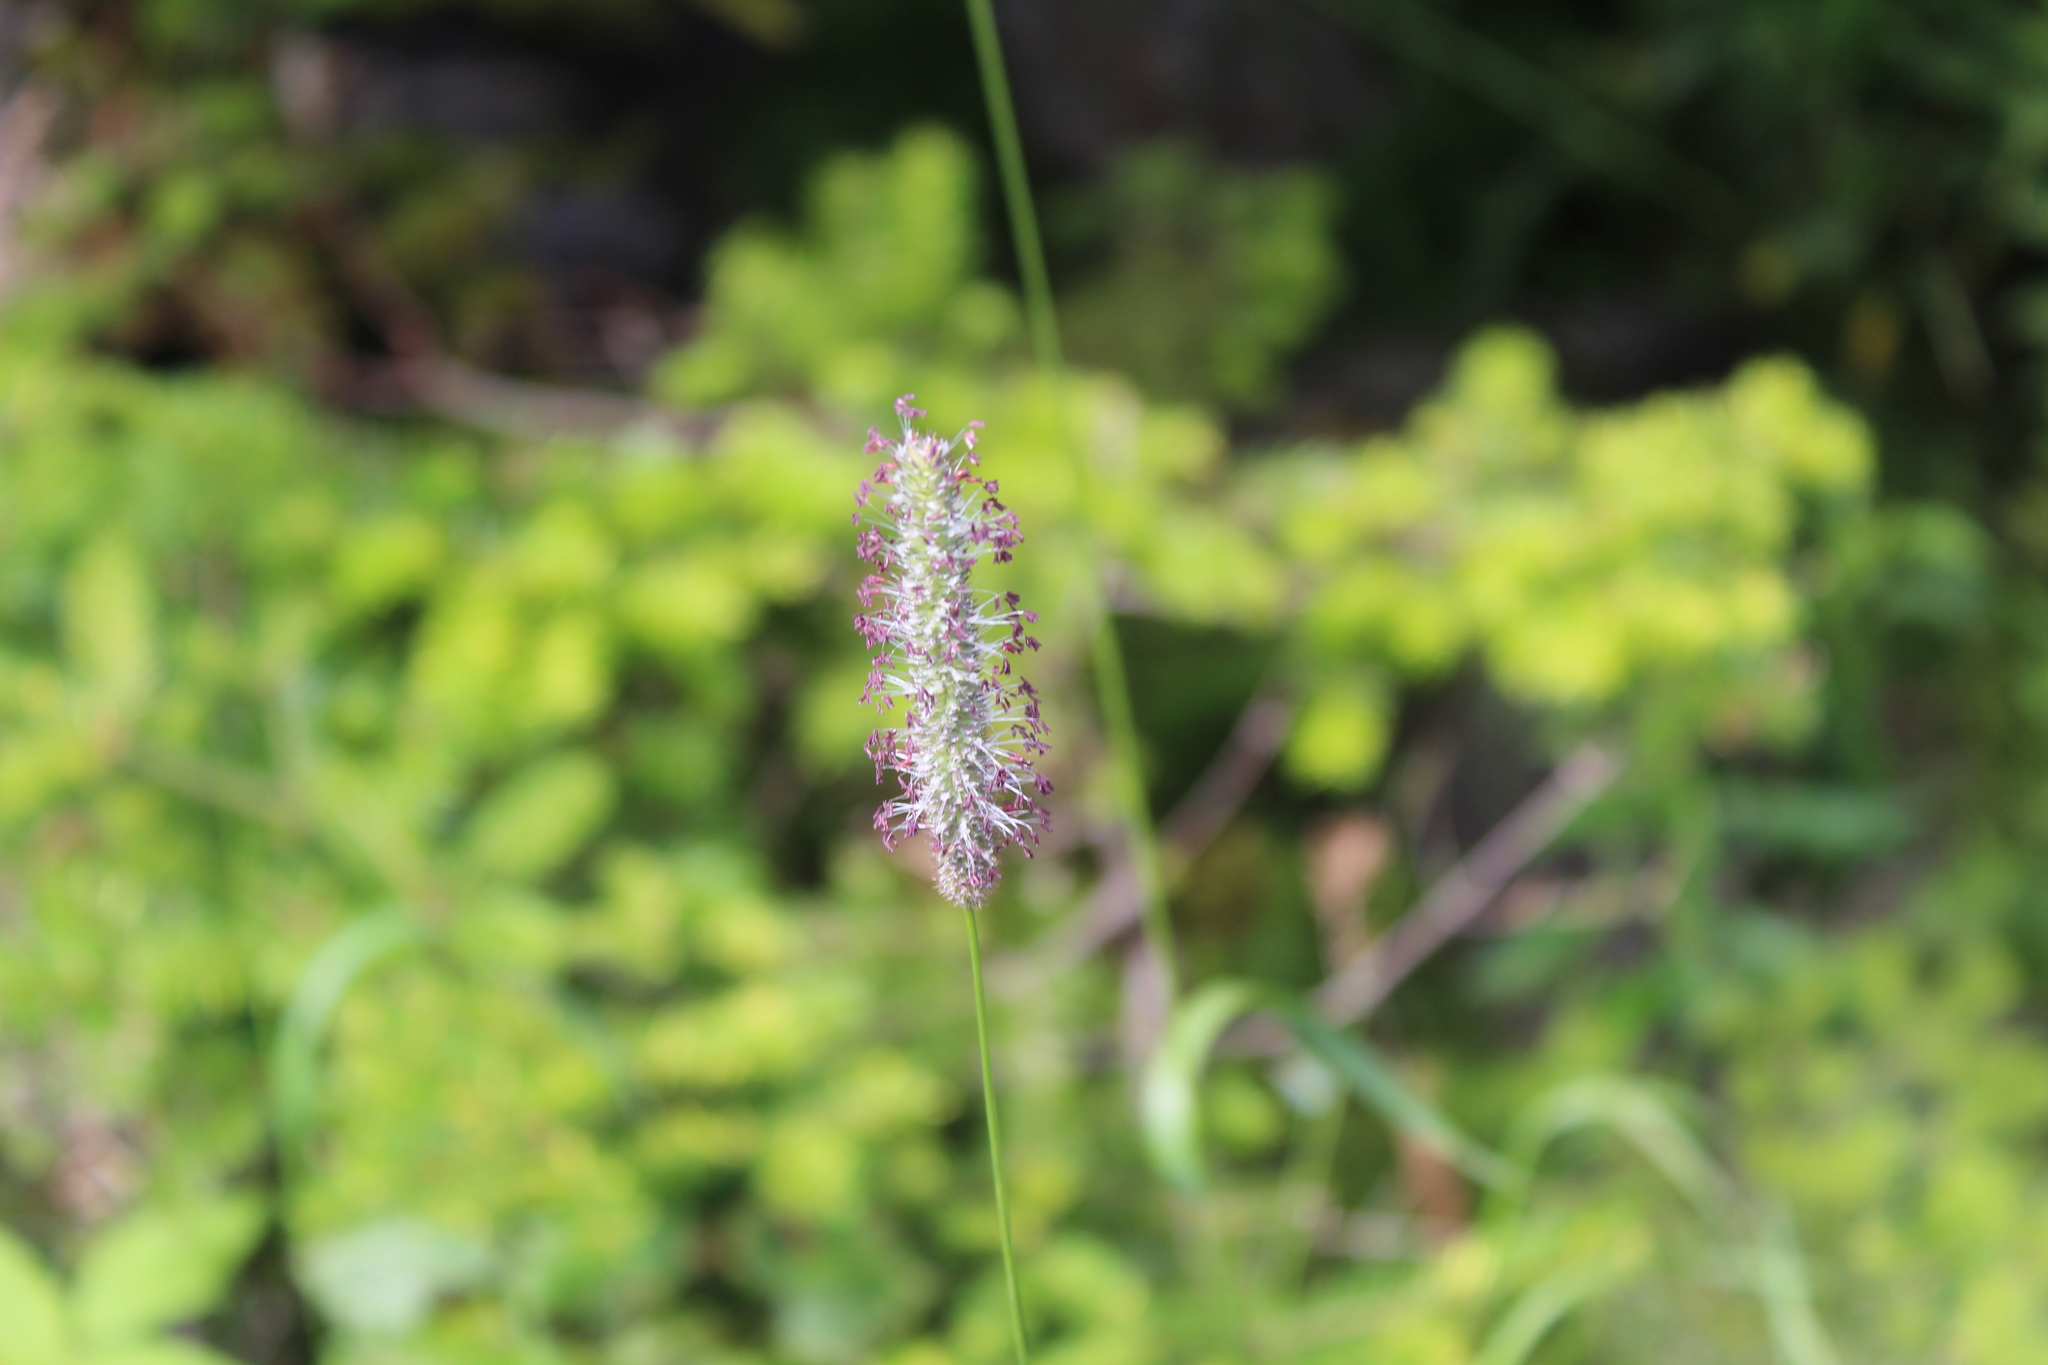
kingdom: Plantae
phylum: Tracheophyta
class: Liliopsida
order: Poales
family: Poaceae
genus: Phleum
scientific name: Phleum pratense
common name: Timothy grass
